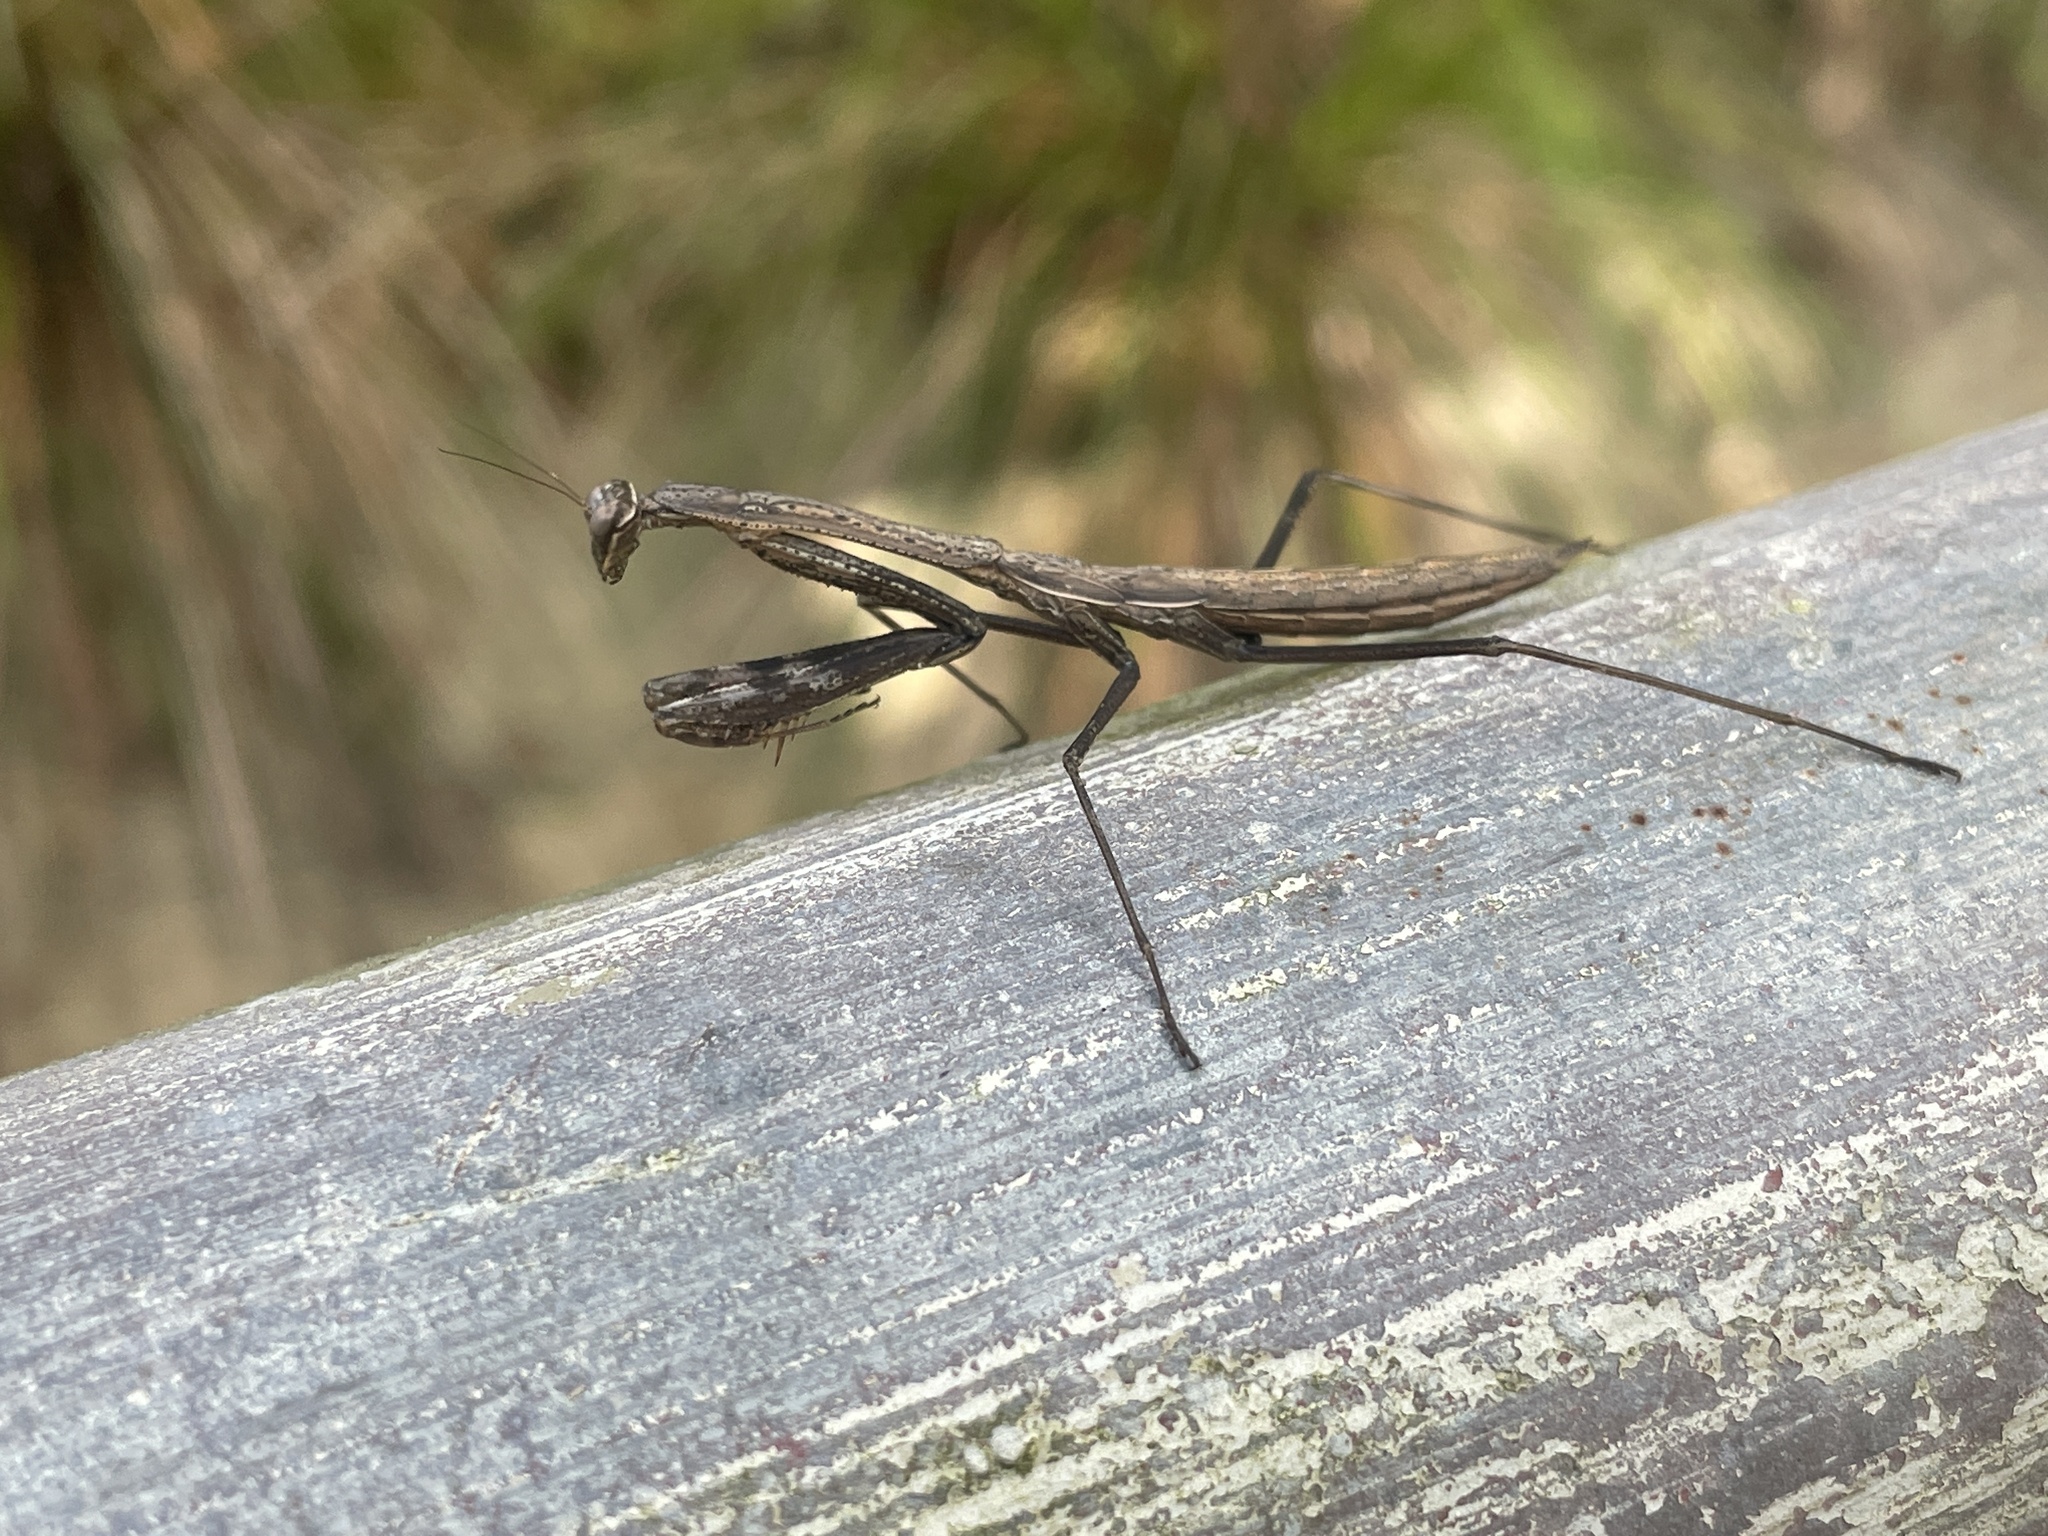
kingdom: Animalia
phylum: Arthropoda
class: Insecta
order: Mantodea
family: Mantidae
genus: Statilia
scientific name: Statilia maculata
